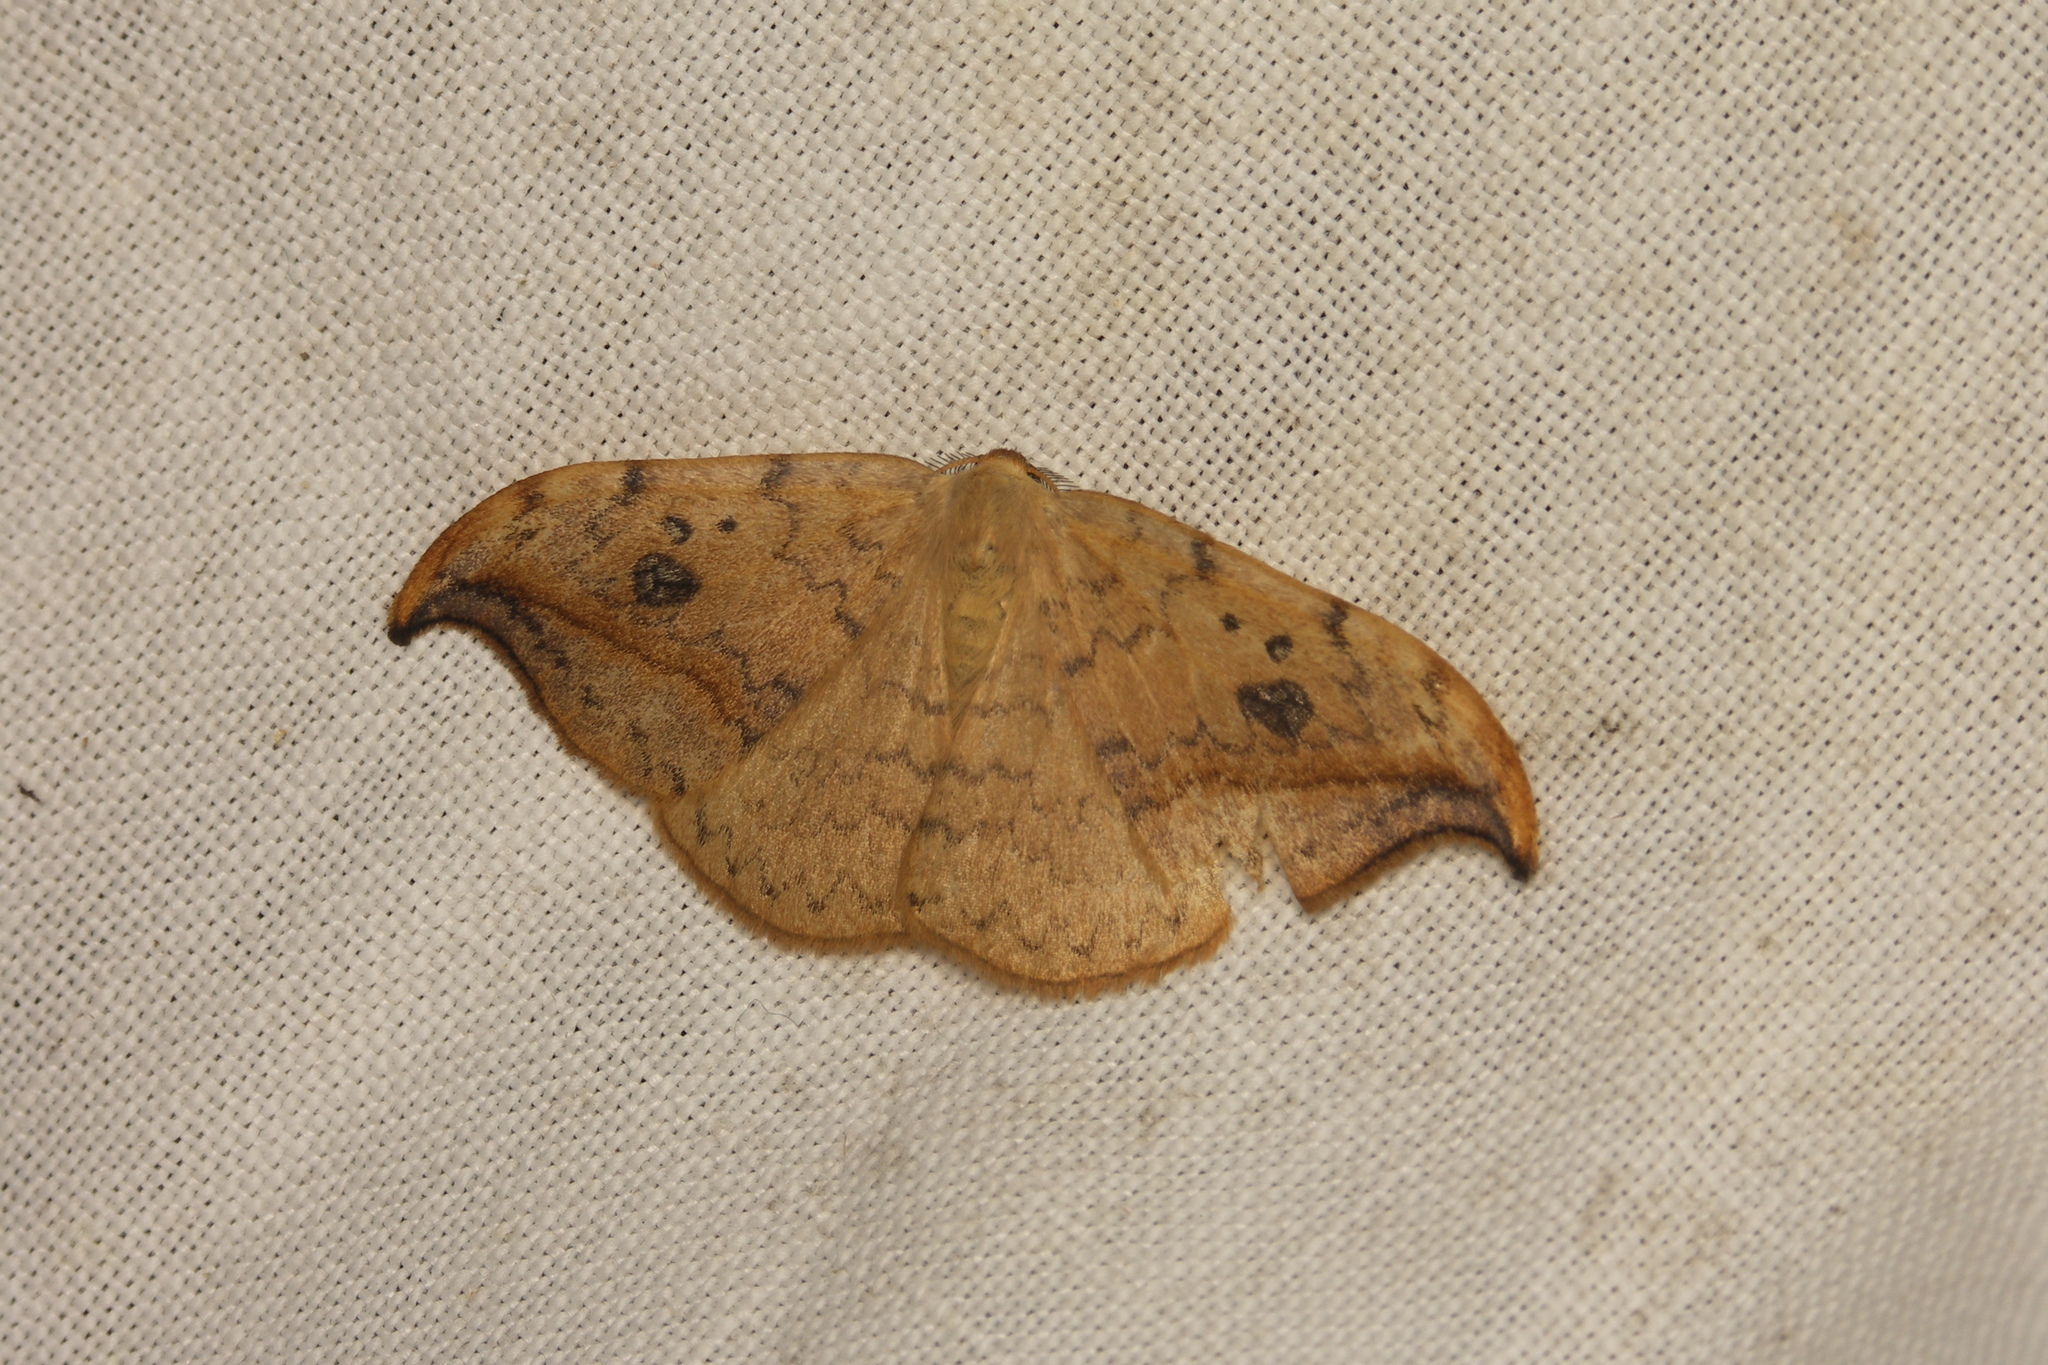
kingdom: Animalia
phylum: Arthropoda
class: Insecta
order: Lepidoptera
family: Drepanidae
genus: Drepana
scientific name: Drepana falcataria
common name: Pebble hook-tip
